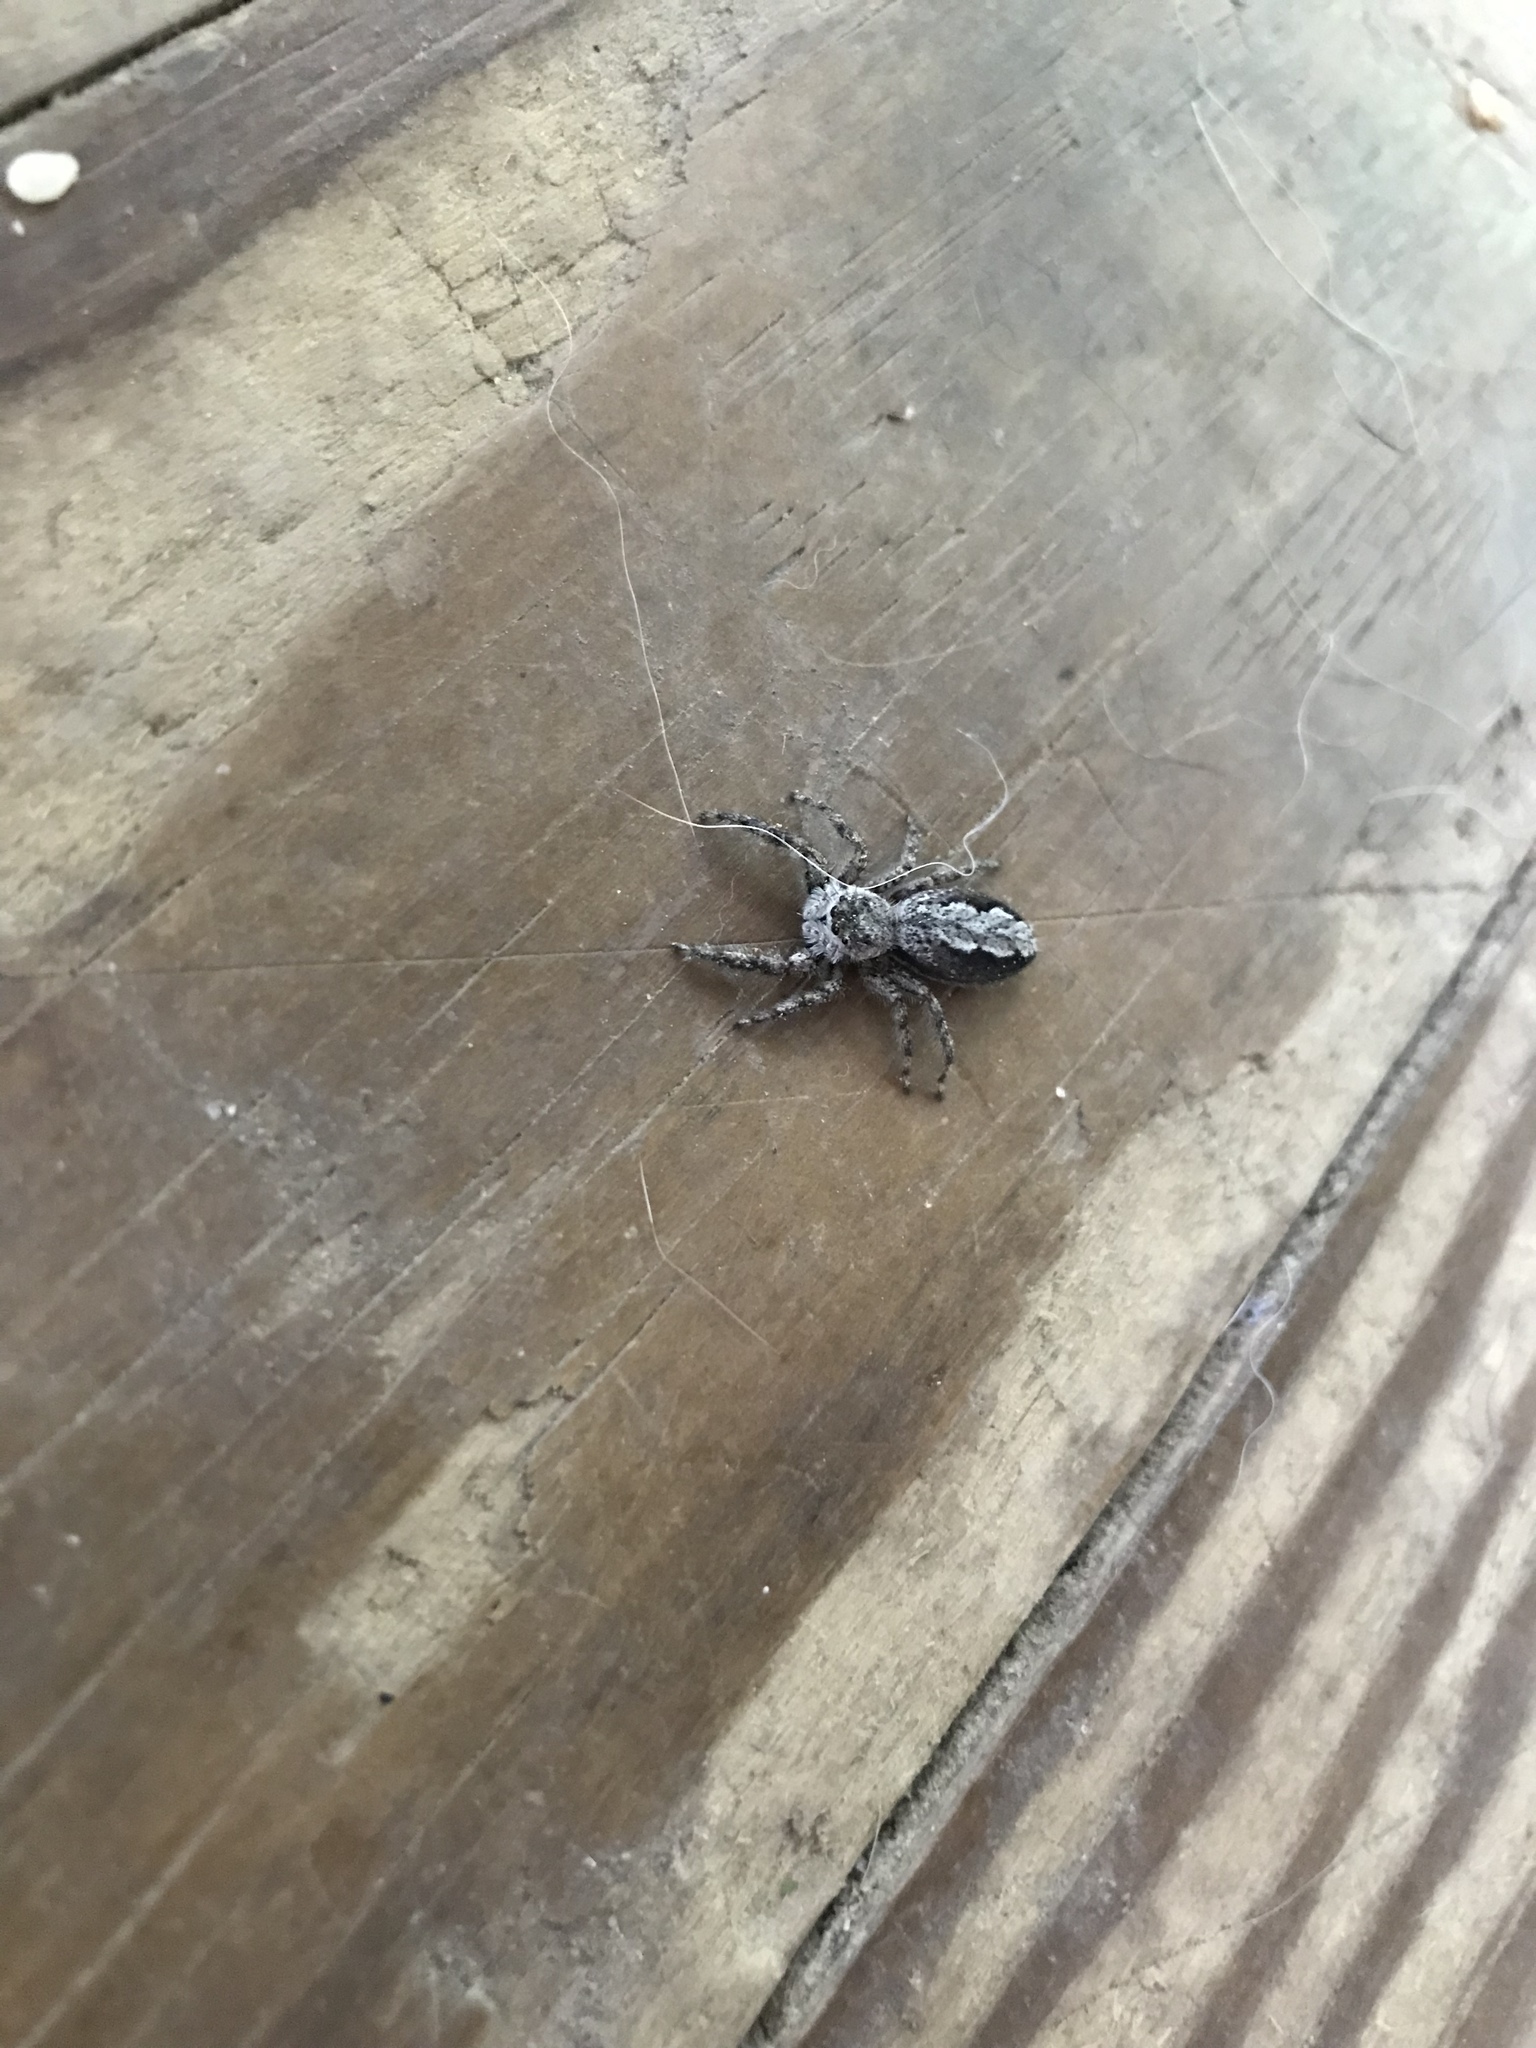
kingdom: Animalia
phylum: Arthropoda
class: Arachnida
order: Araneae
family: Salticidae
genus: Platycryptus
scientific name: Platycryptus undatus
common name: Tan jumping spider
